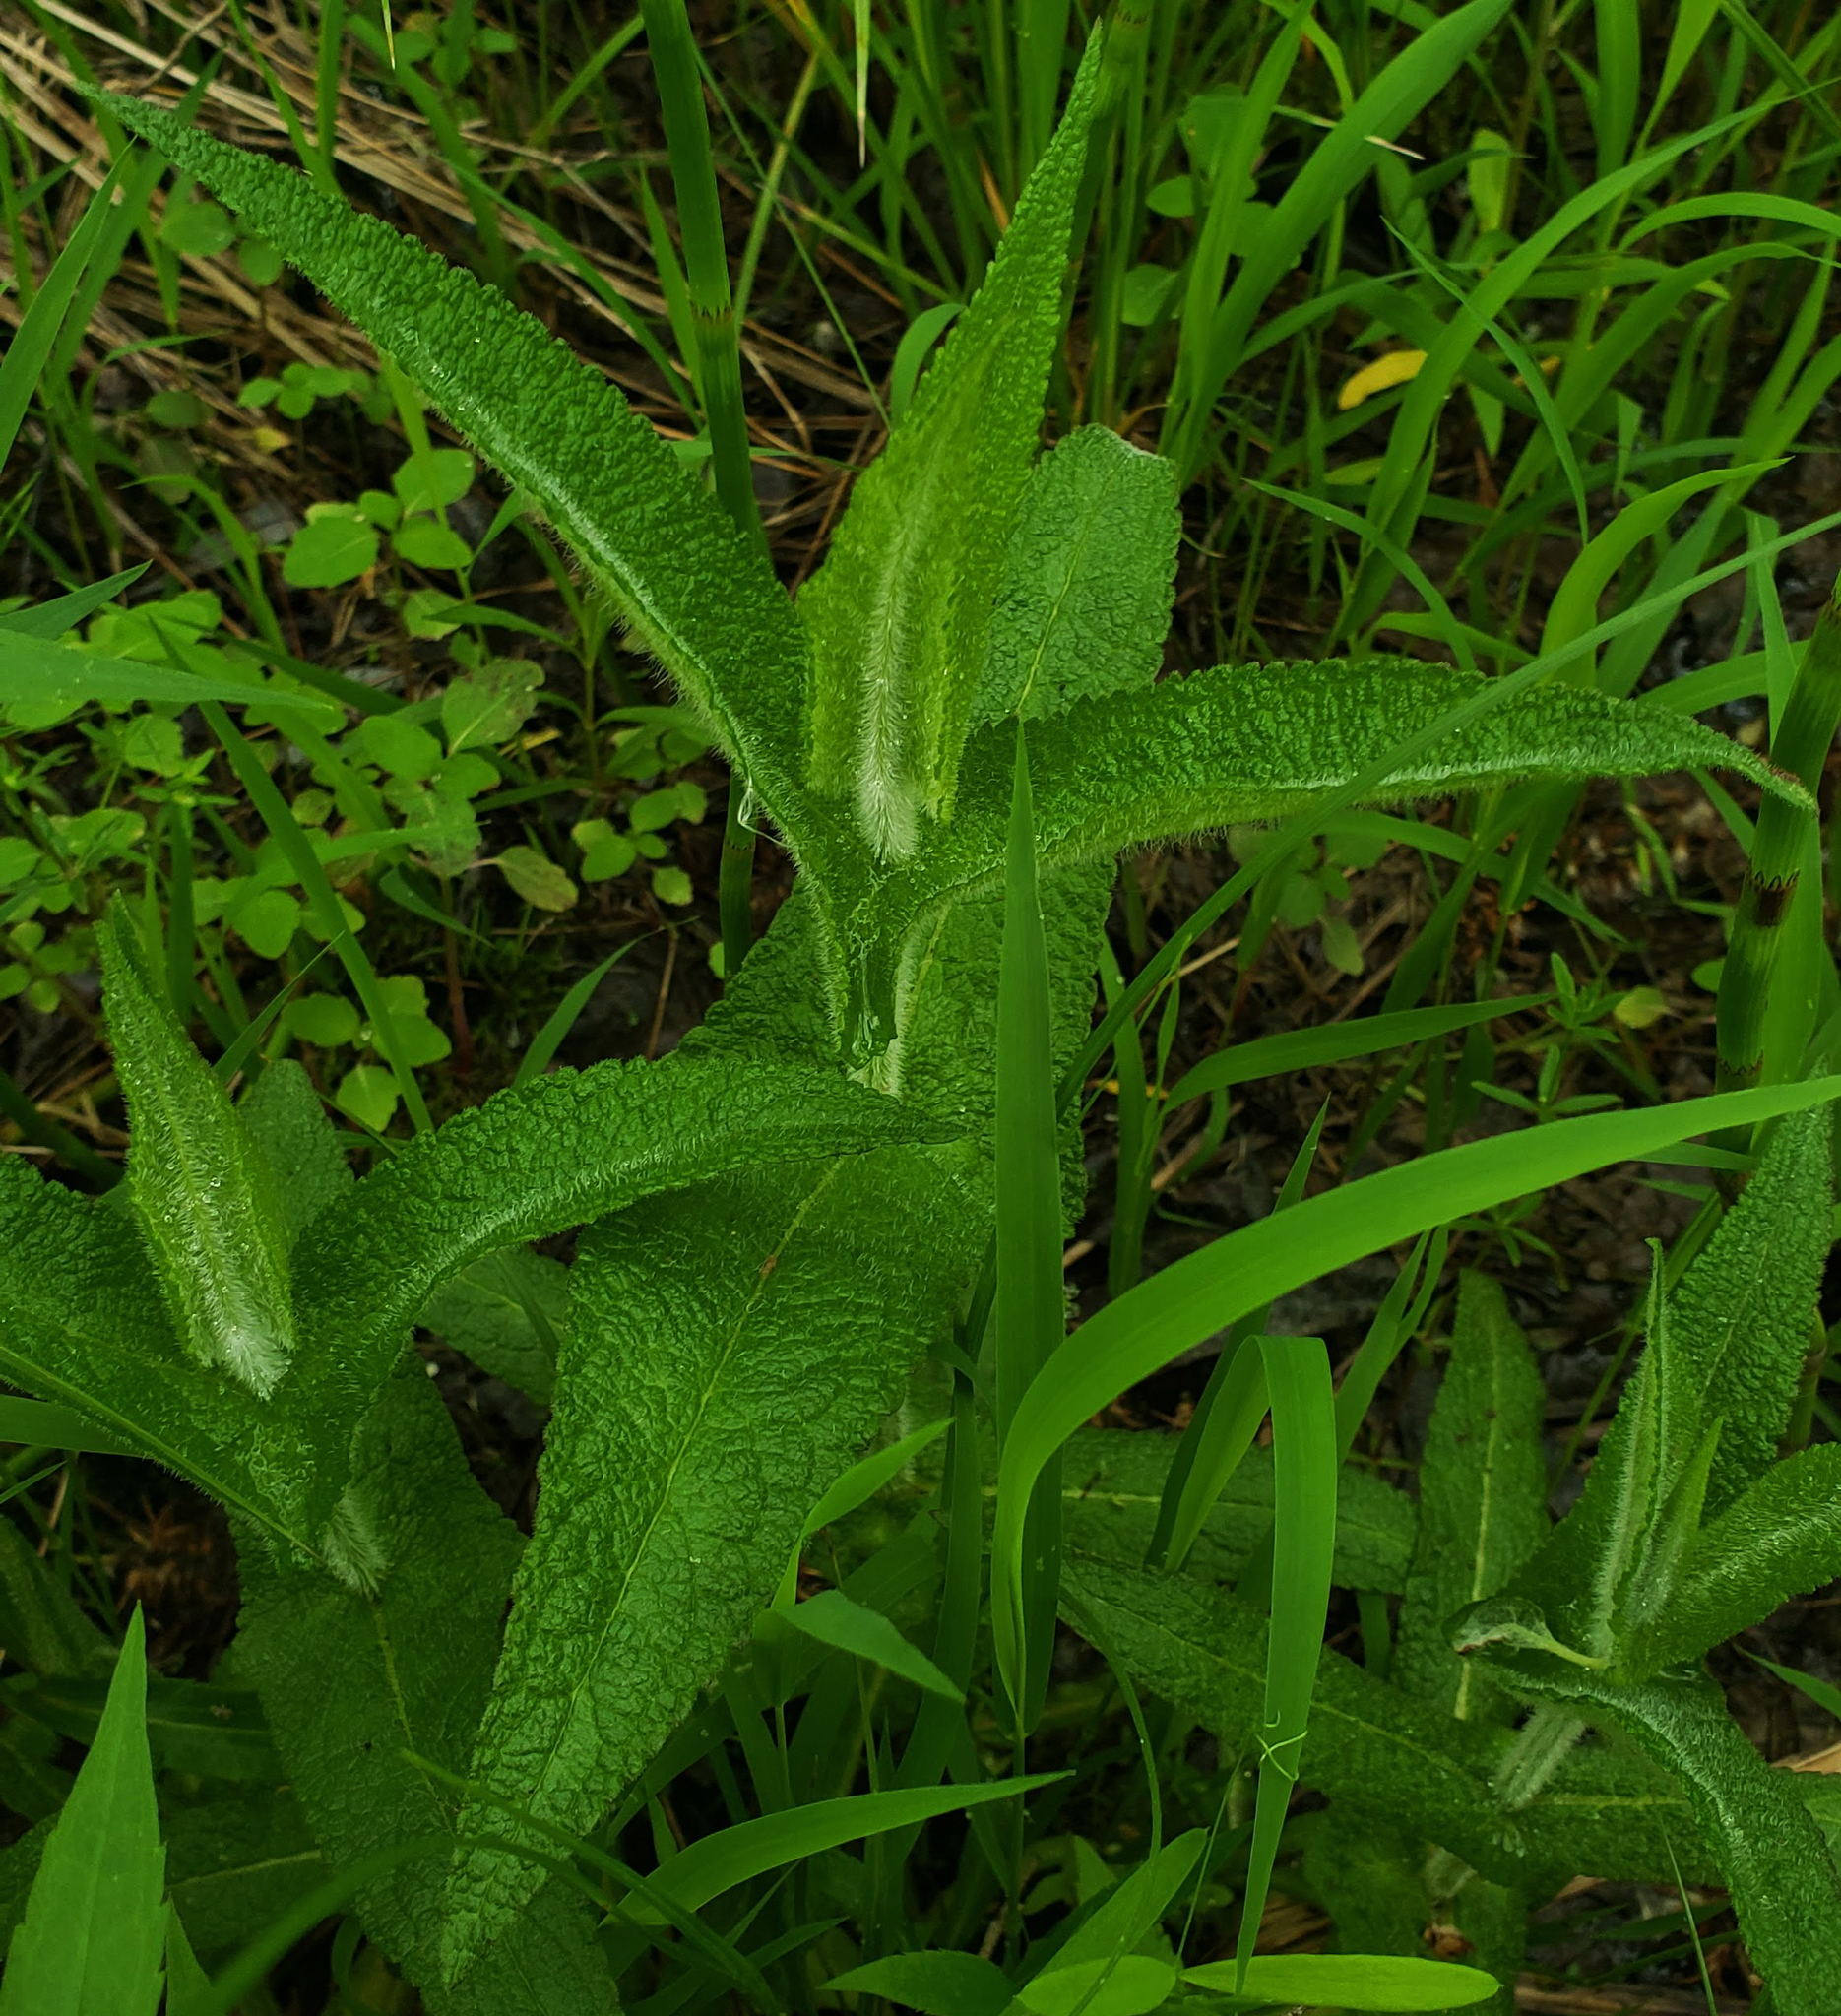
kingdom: Plantae
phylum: Tracheophyta
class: Magnoliopsida
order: Asterales
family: Asteraceae
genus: Eupatorium
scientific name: Eupatorium perfoliatum
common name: Boneset
